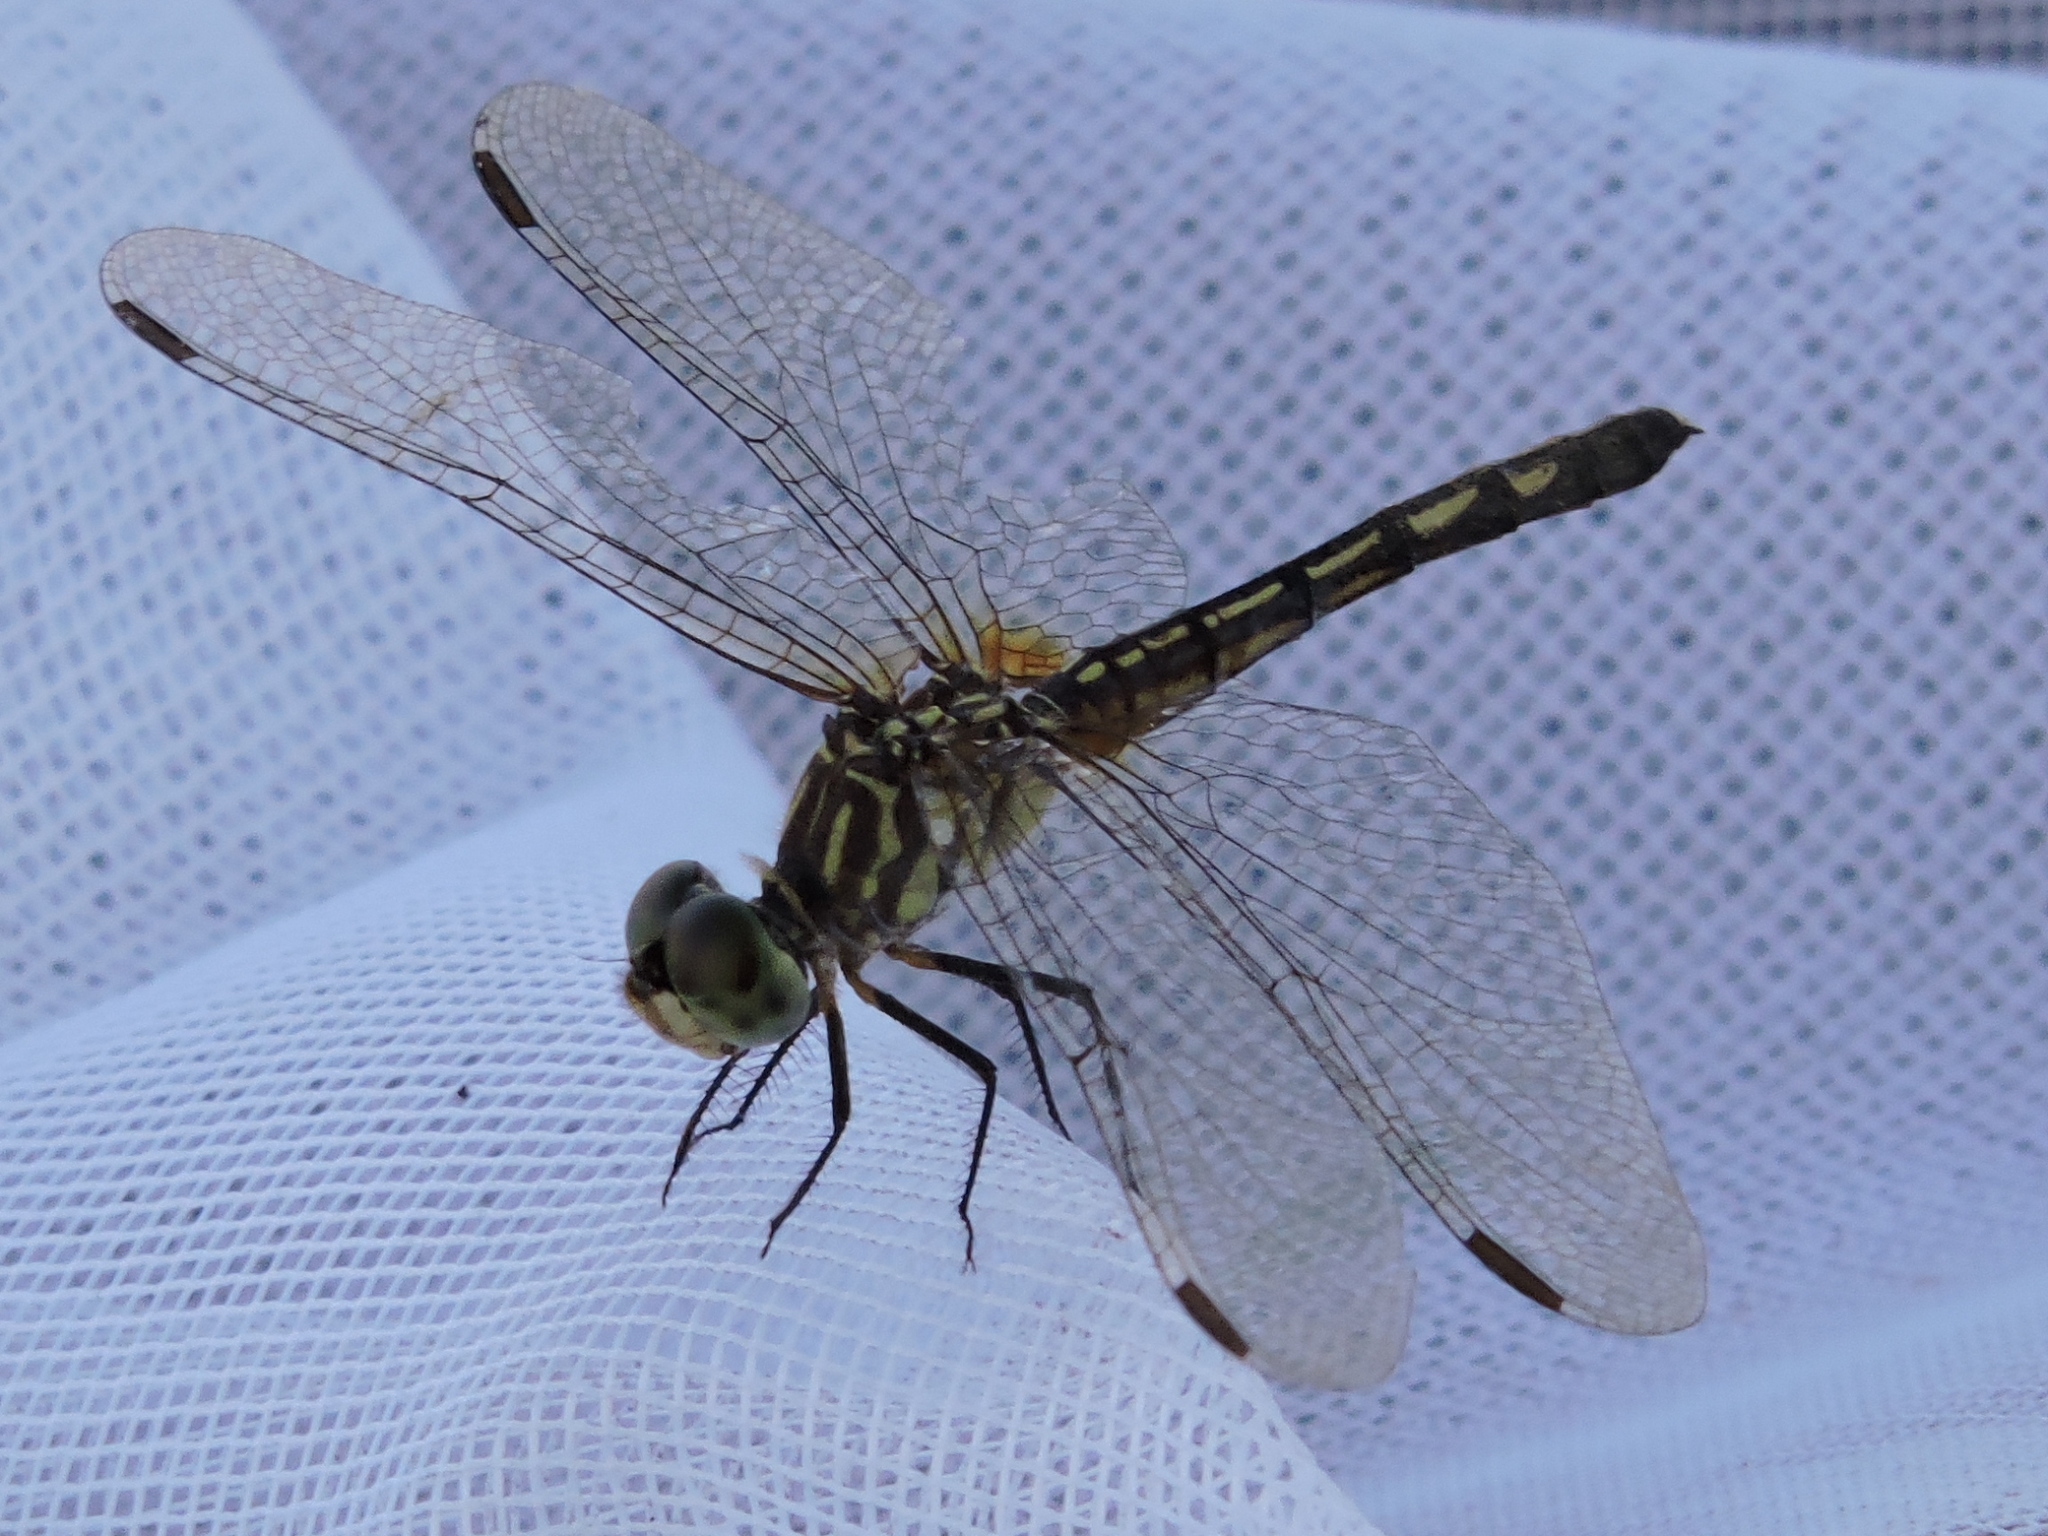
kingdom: Animalia
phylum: Arthropoda
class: Insecta
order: Odonata
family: Libellulidae
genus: Pachydiplax
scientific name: Pachydiplax longipennis
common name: Blue dasher
